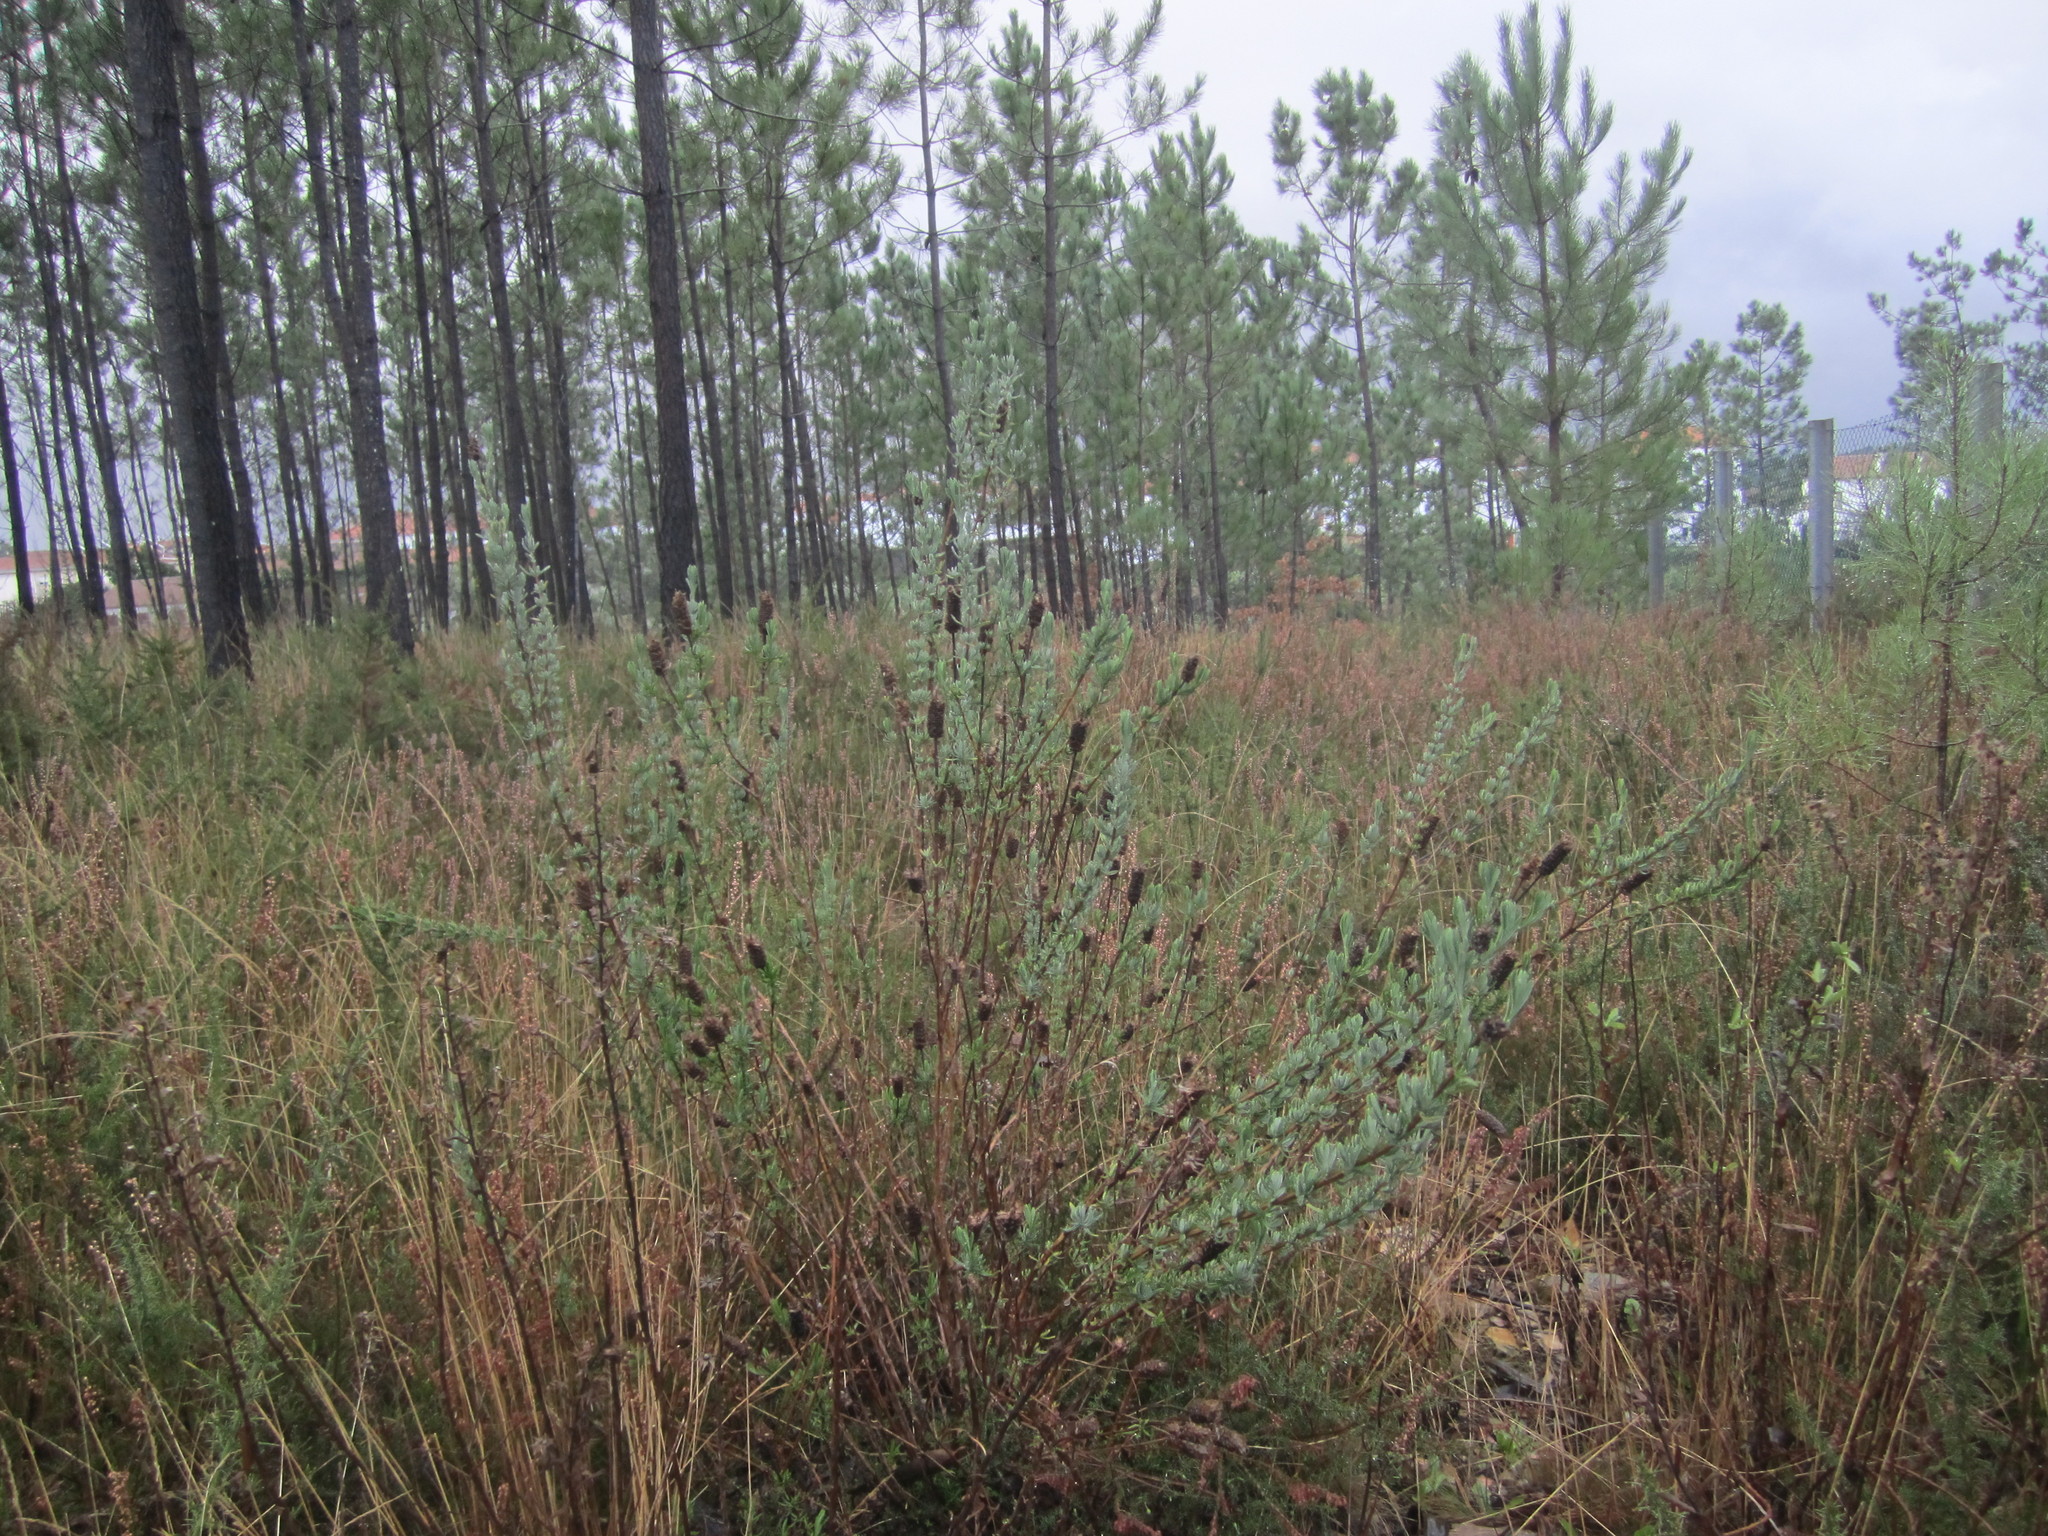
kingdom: Plantae
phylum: Tracheophyta
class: Magnoliopsida
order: Lamiales
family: Lamiaceae
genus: Lavandula
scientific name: Lavandula stoechas
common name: French lavender
